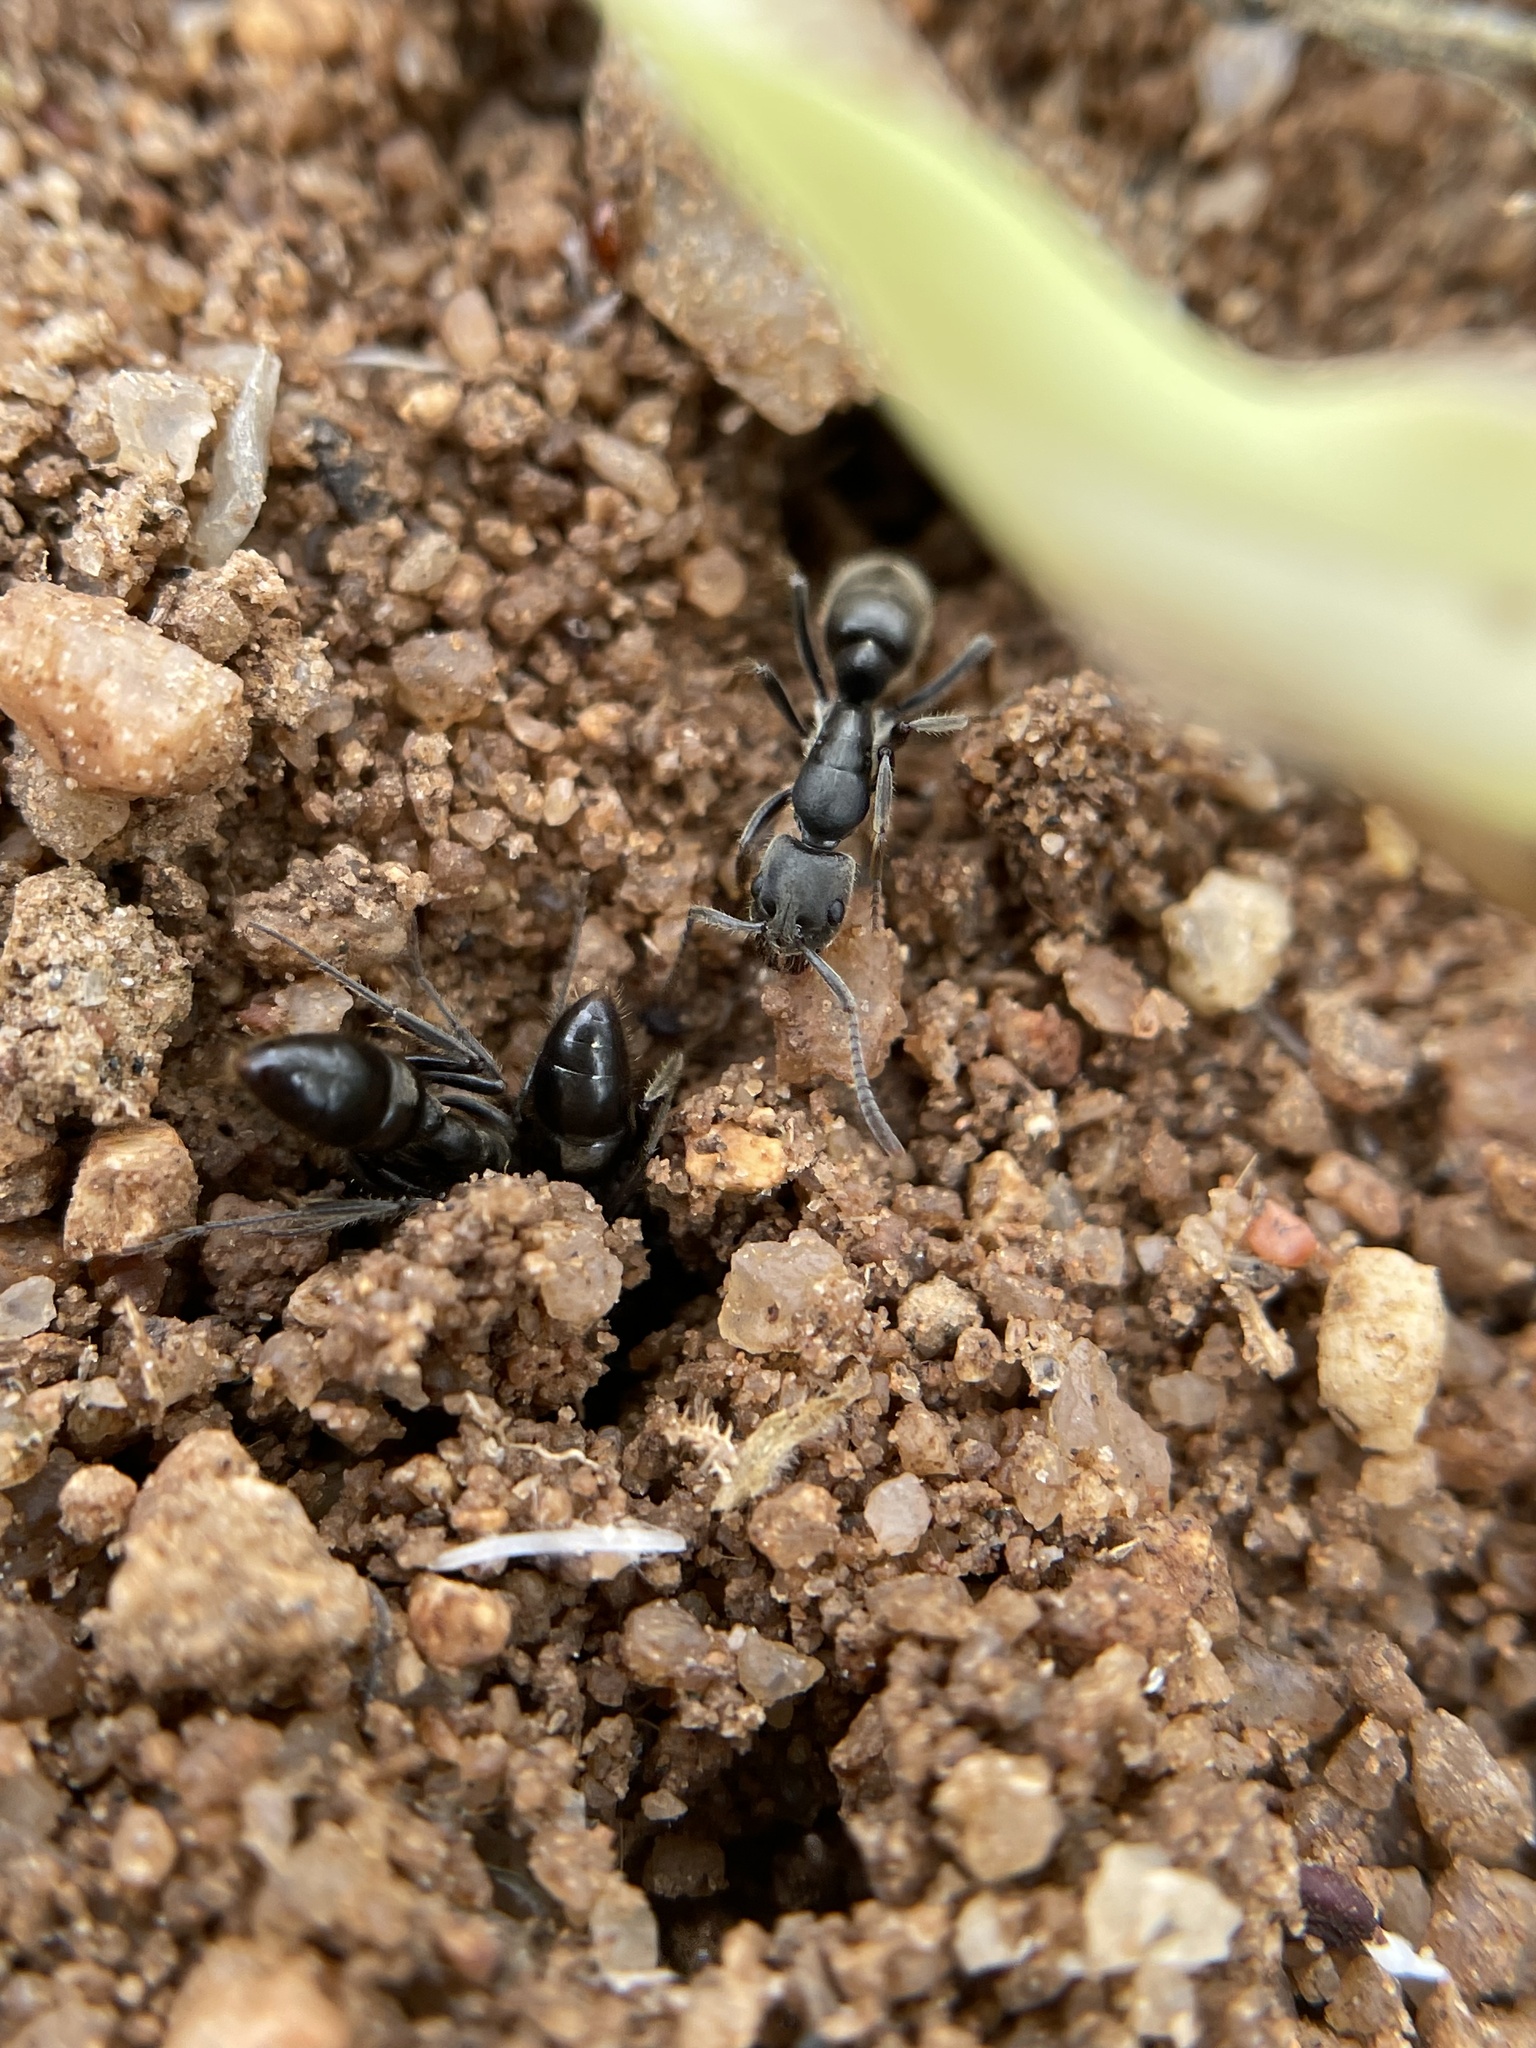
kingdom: Animalia
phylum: Arthropoda
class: Insecta
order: Hymenoptera
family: Formicidae
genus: Bothroponera
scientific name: Bothroponera
